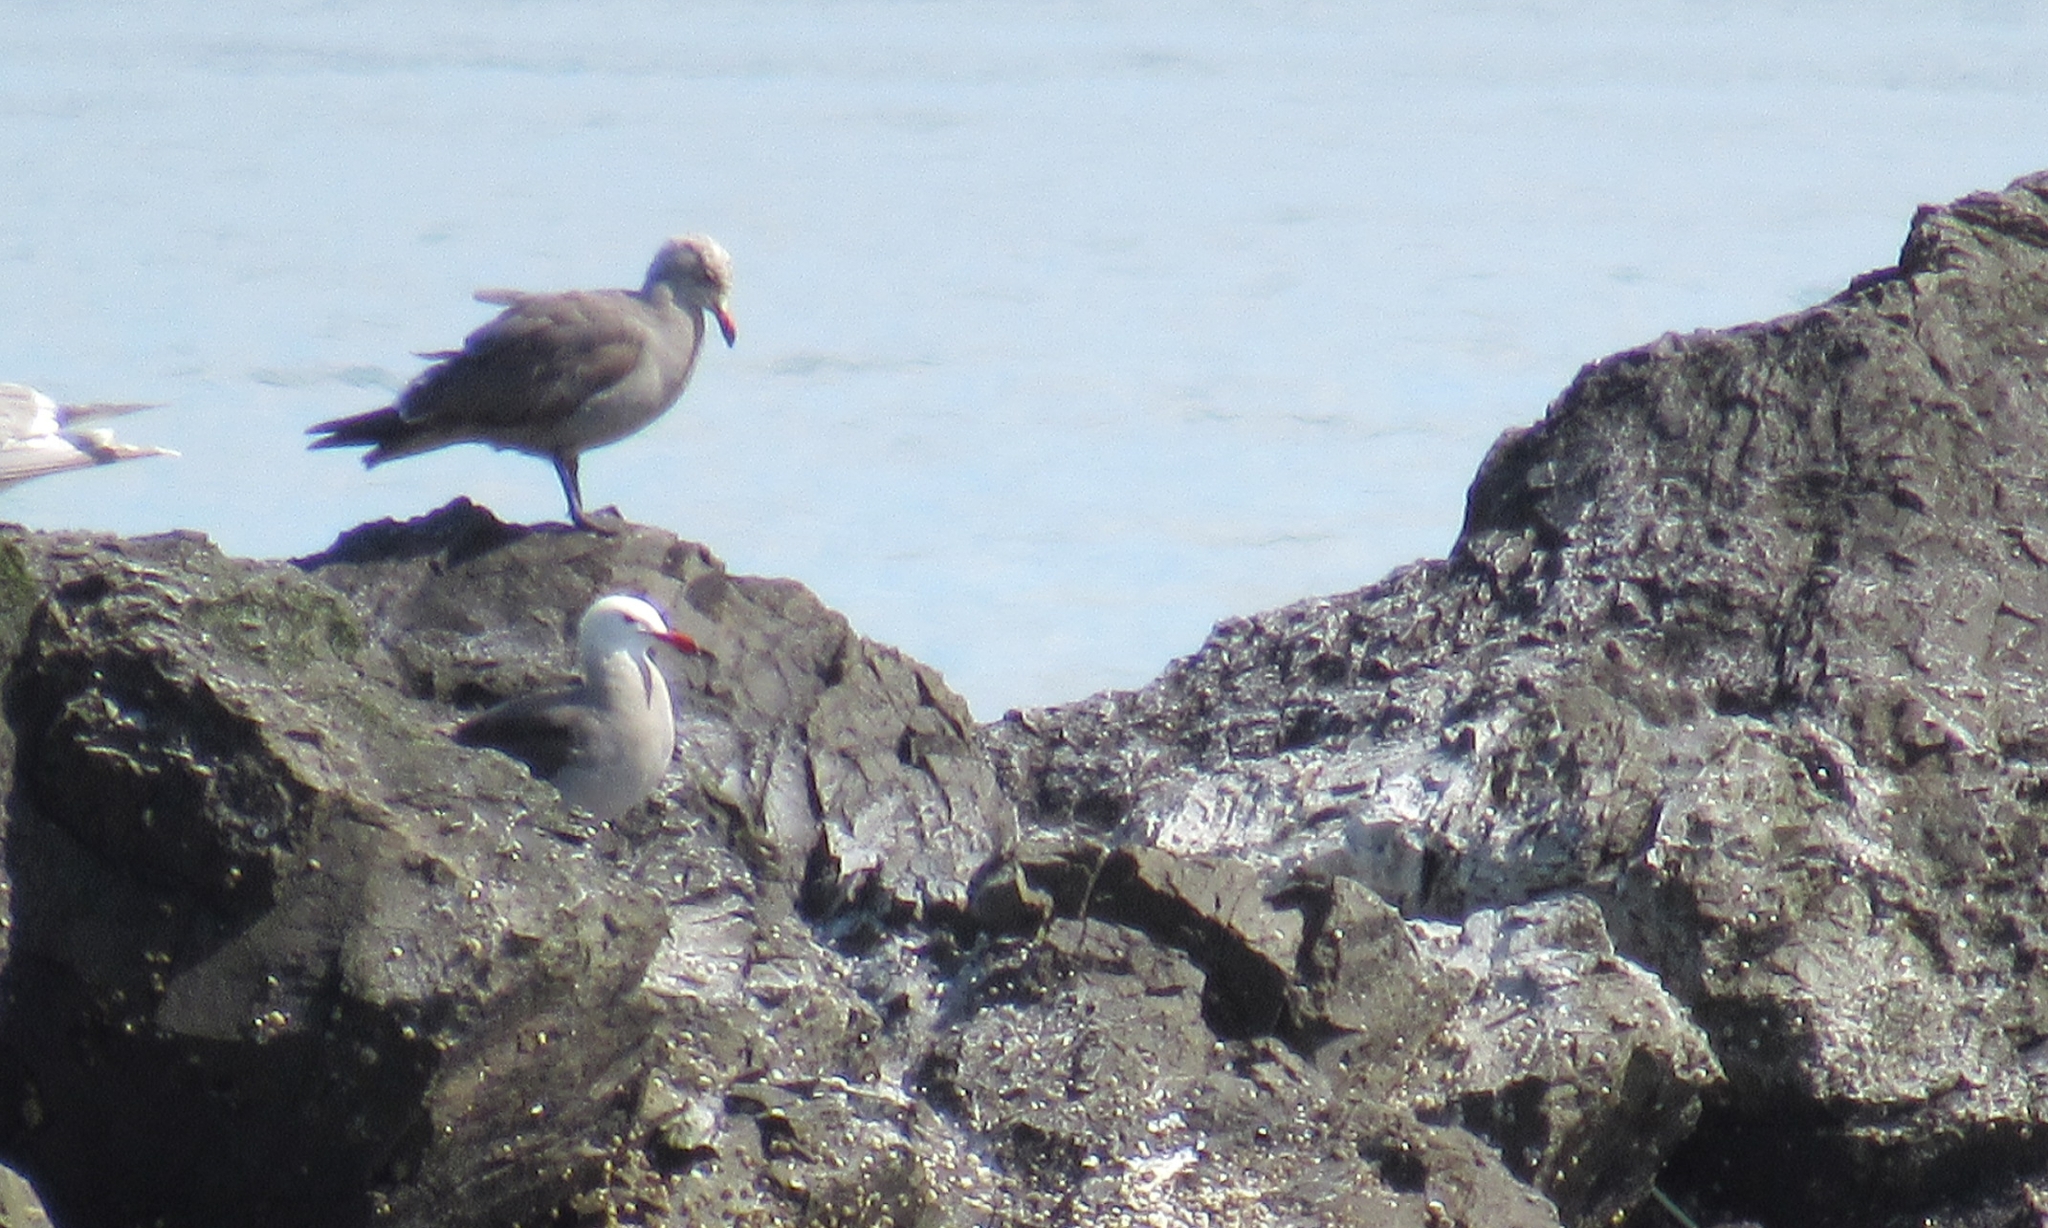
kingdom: Animalia
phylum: Chordata
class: Aves
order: Charadriiformes
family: Laridae
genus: Larus
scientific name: Larus heermanni
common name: Heermann's gull
